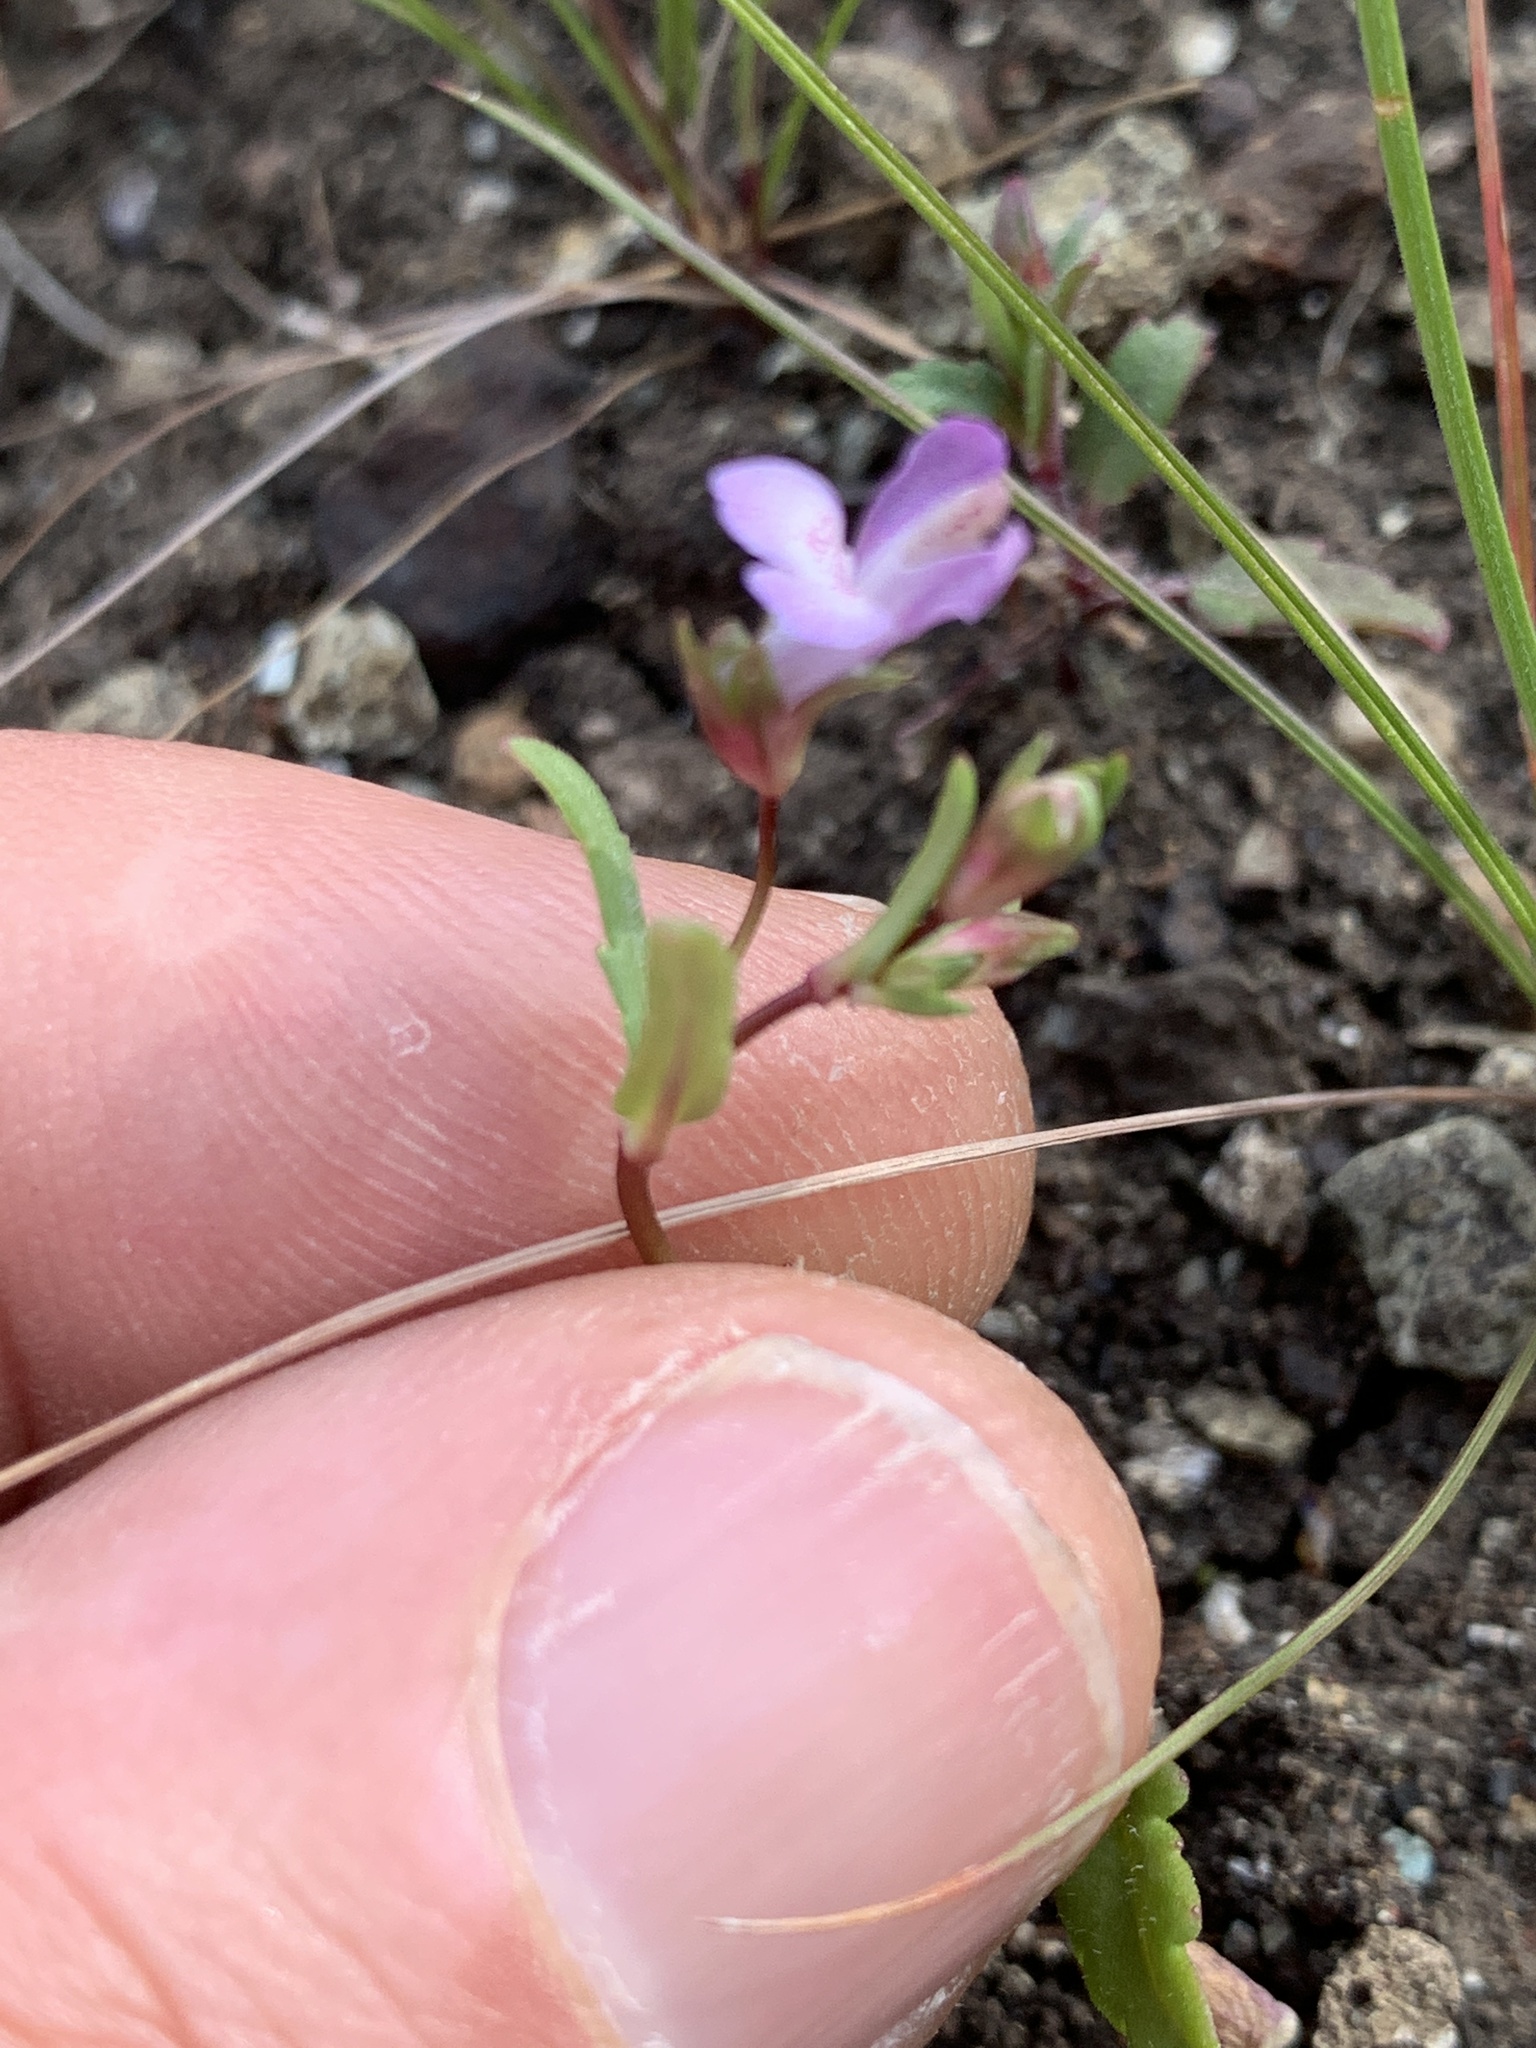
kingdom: Plantae
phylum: Tracheophyta
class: Magnoliopsida
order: Lamiales
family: Plantaginaceae
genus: Collinsia
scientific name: Collinsia sparsiflora
